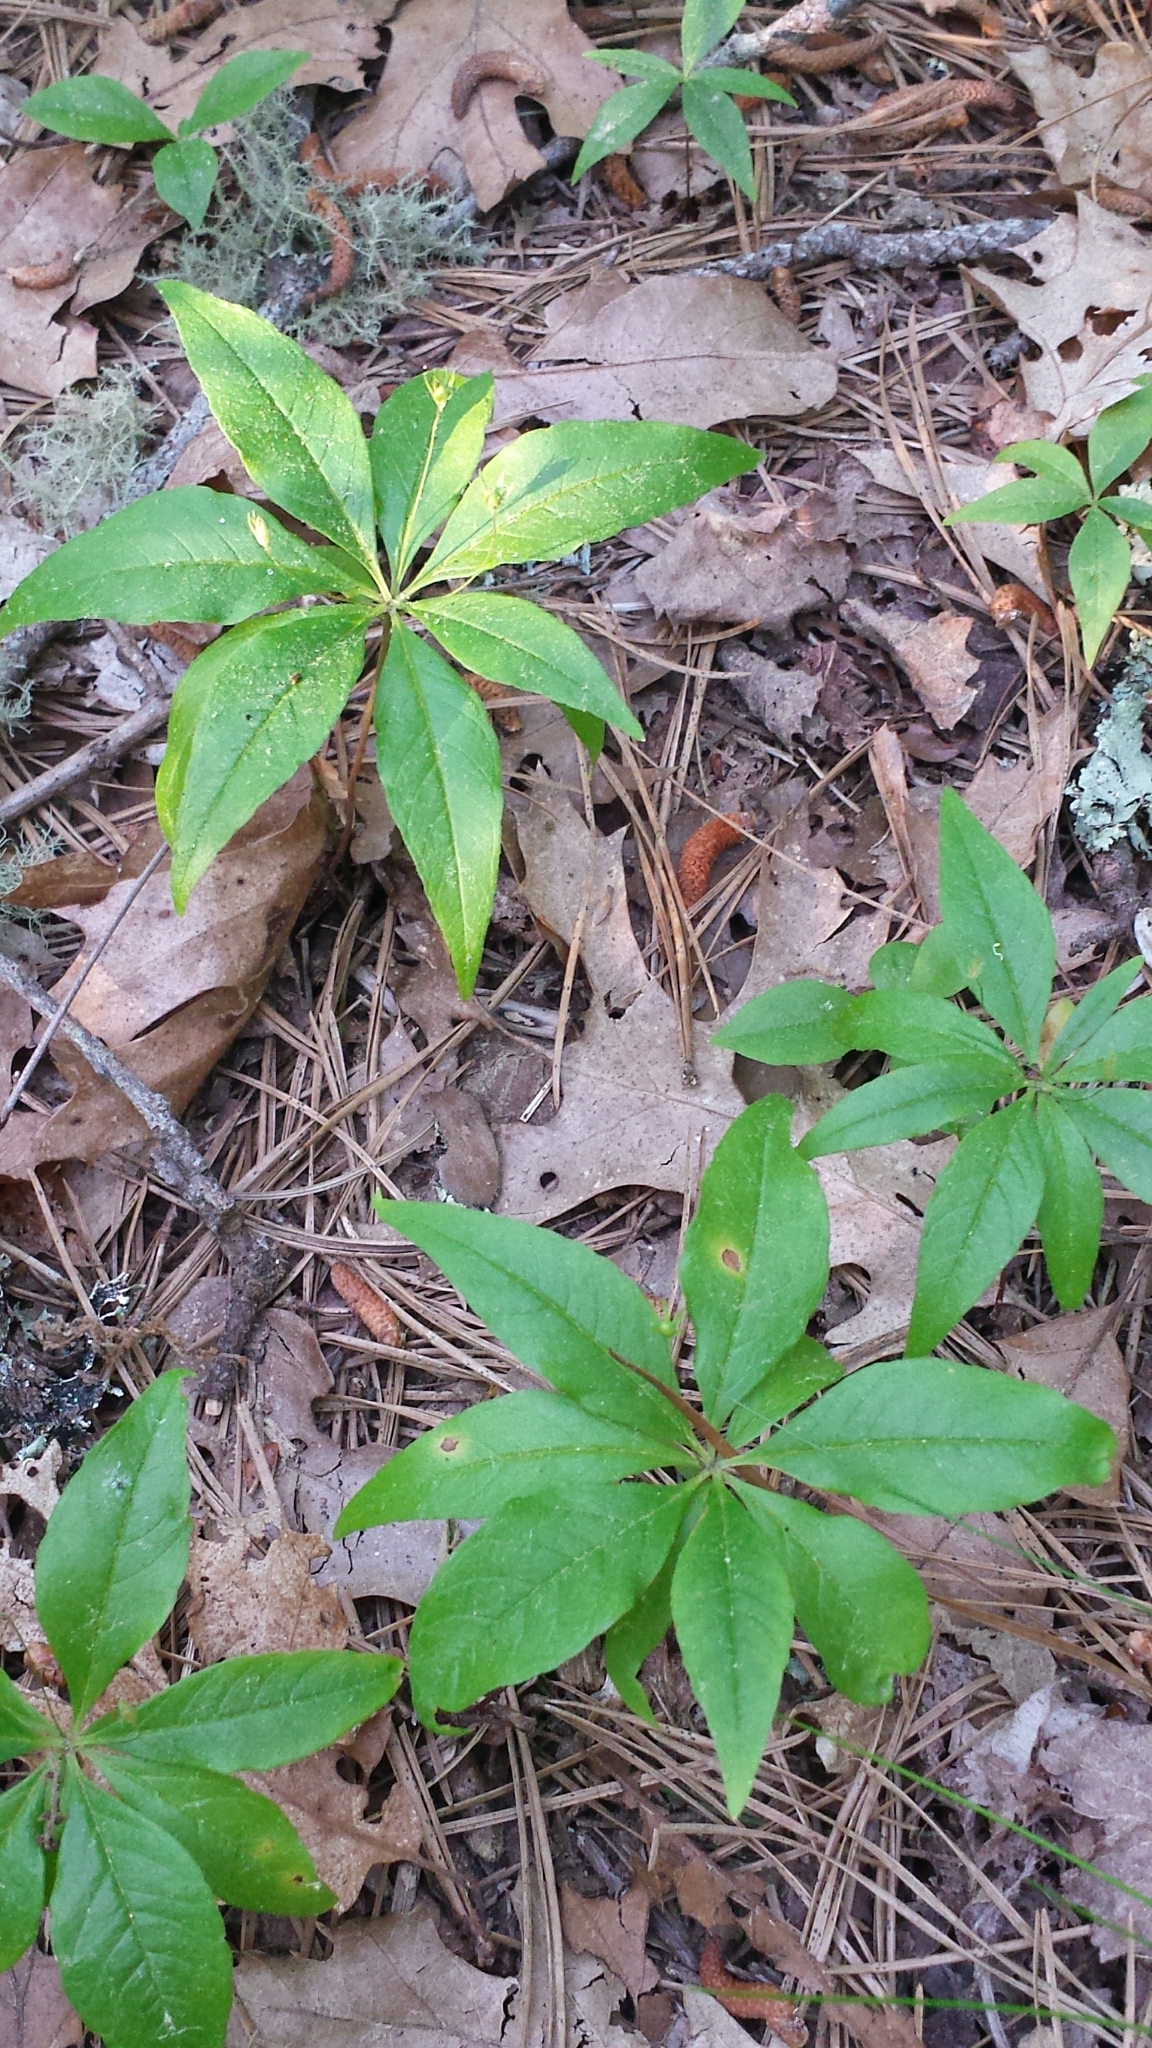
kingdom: Plantae
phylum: Tracheophyta
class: Magnoliopsida
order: Ericales
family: Primulaceae
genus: Lysimachia
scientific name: Lysimachia borealis
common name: American starflower
